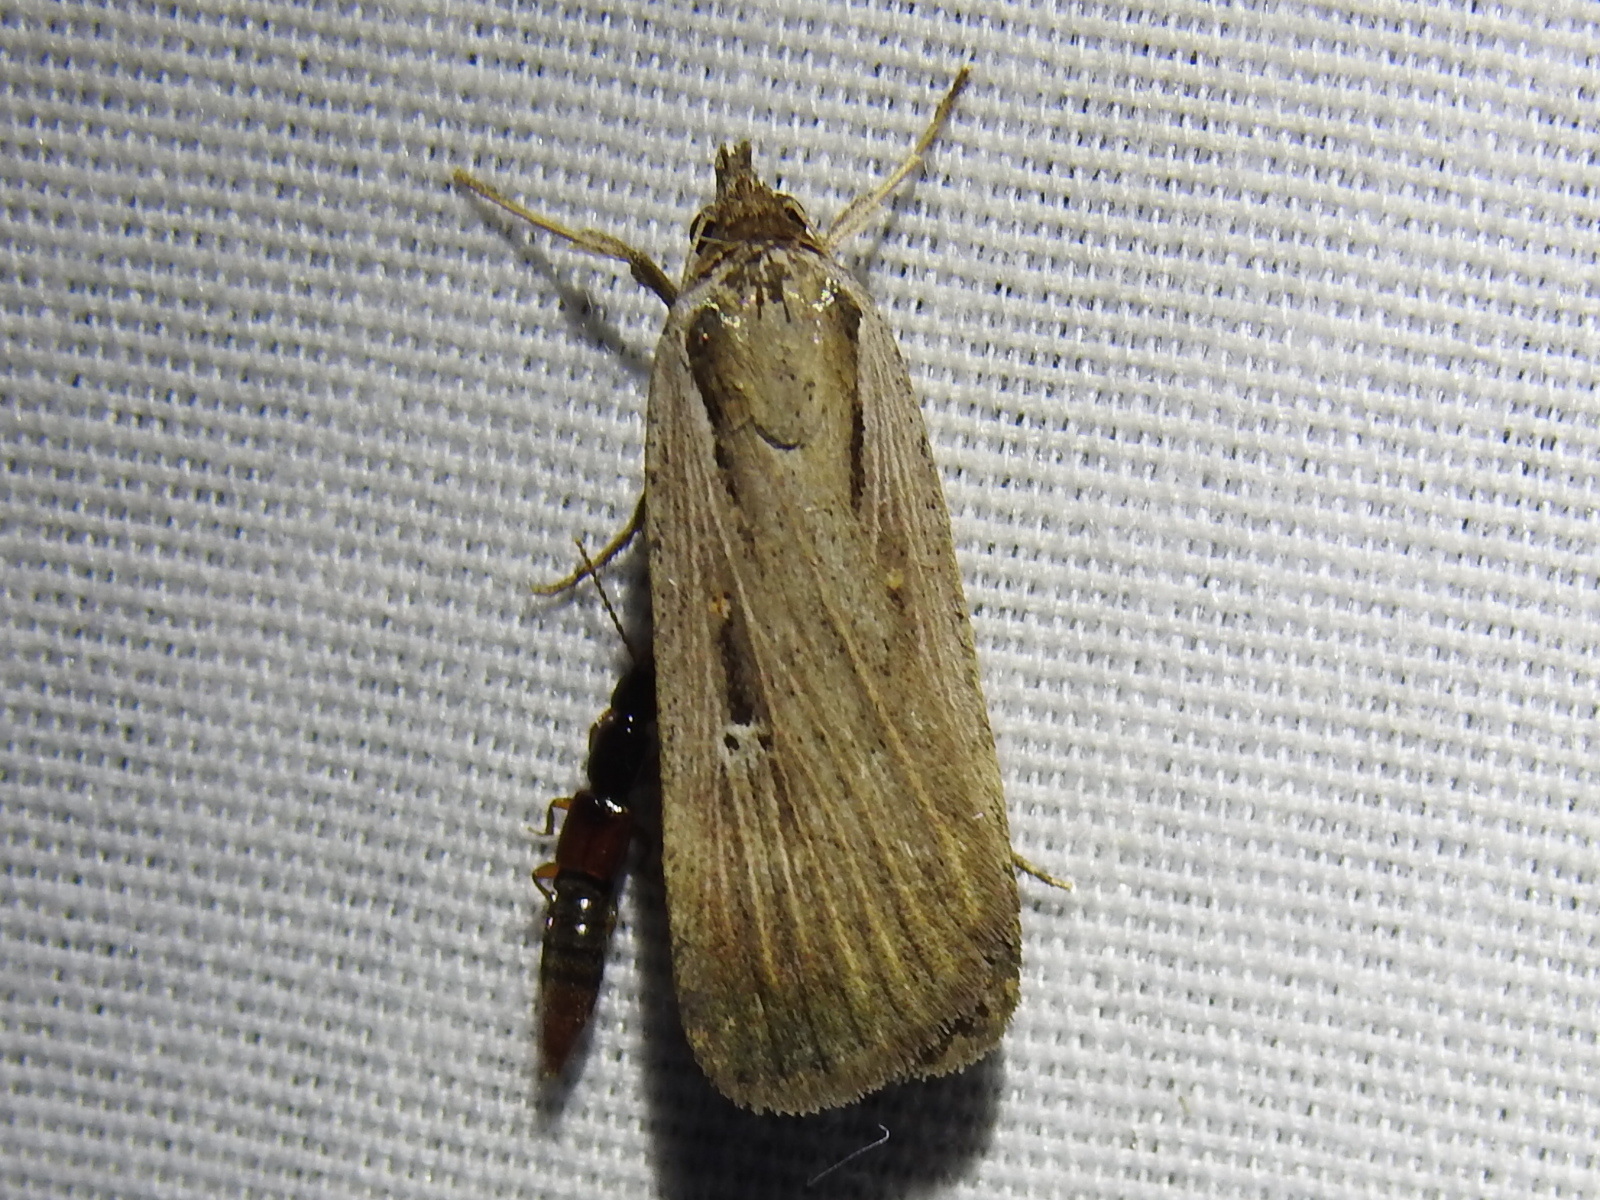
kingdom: Animalia
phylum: Arthropoda
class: Insecta
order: Lepidoptera
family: Noctuidae
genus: Tathorhynchus
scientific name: Tathorhynchus exsiccata
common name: Levant blackneck moth
